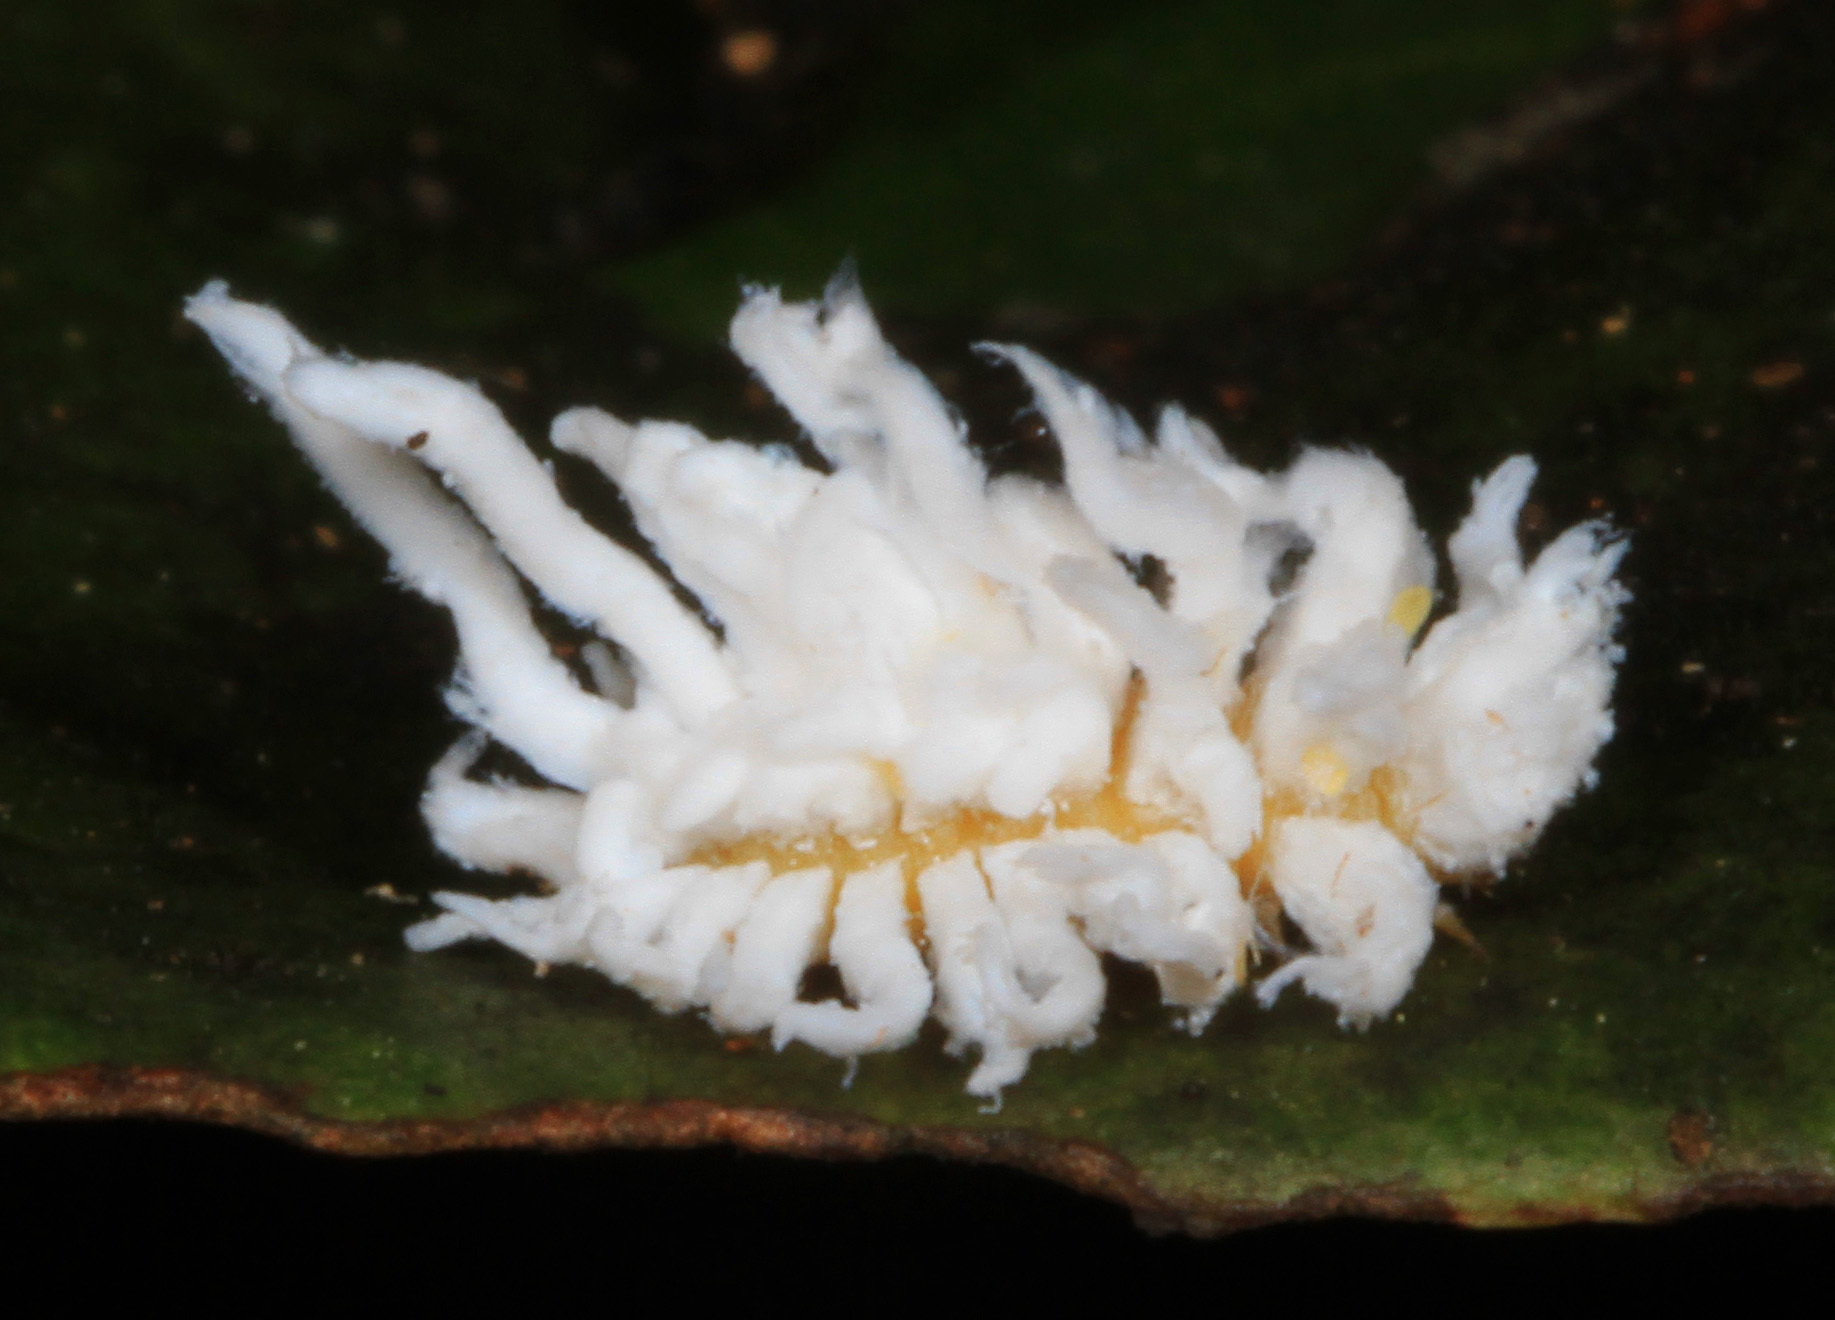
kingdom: Animalia
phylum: Arthropoda
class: Insecta
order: Coleoptera
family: Coccinellidae
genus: Cryptolaemus
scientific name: Cryptolaemus montrouzieri
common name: Mealybug destroyer
